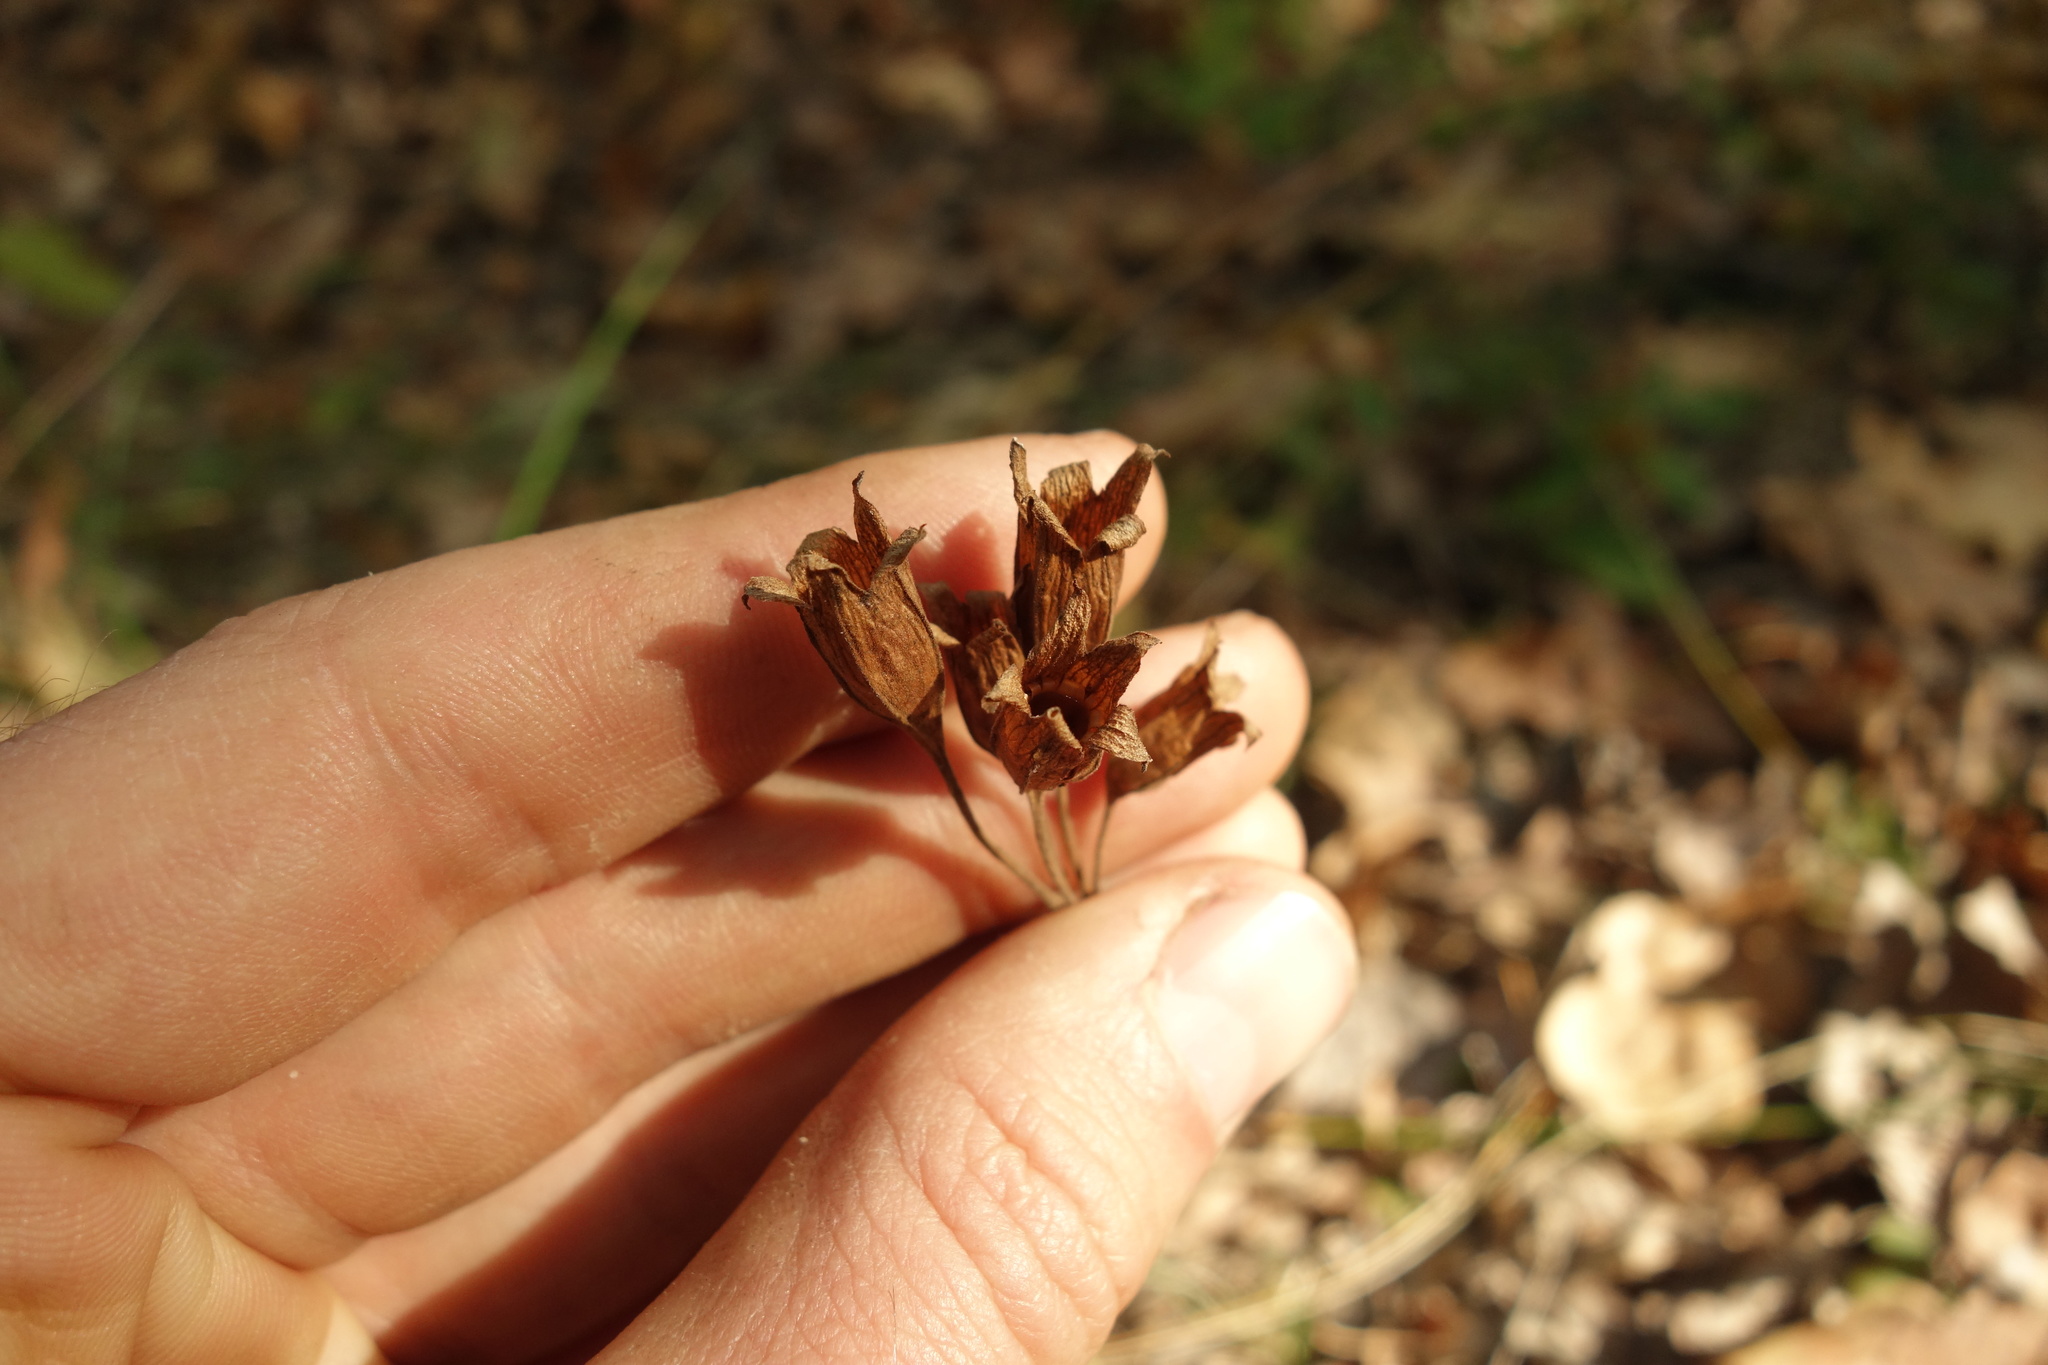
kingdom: Plantae
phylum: Tracheophyta
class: Magnoliopsida
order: Ericales
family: Primulaceae
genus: Primula
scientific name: Primula veris
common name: Cowslip
